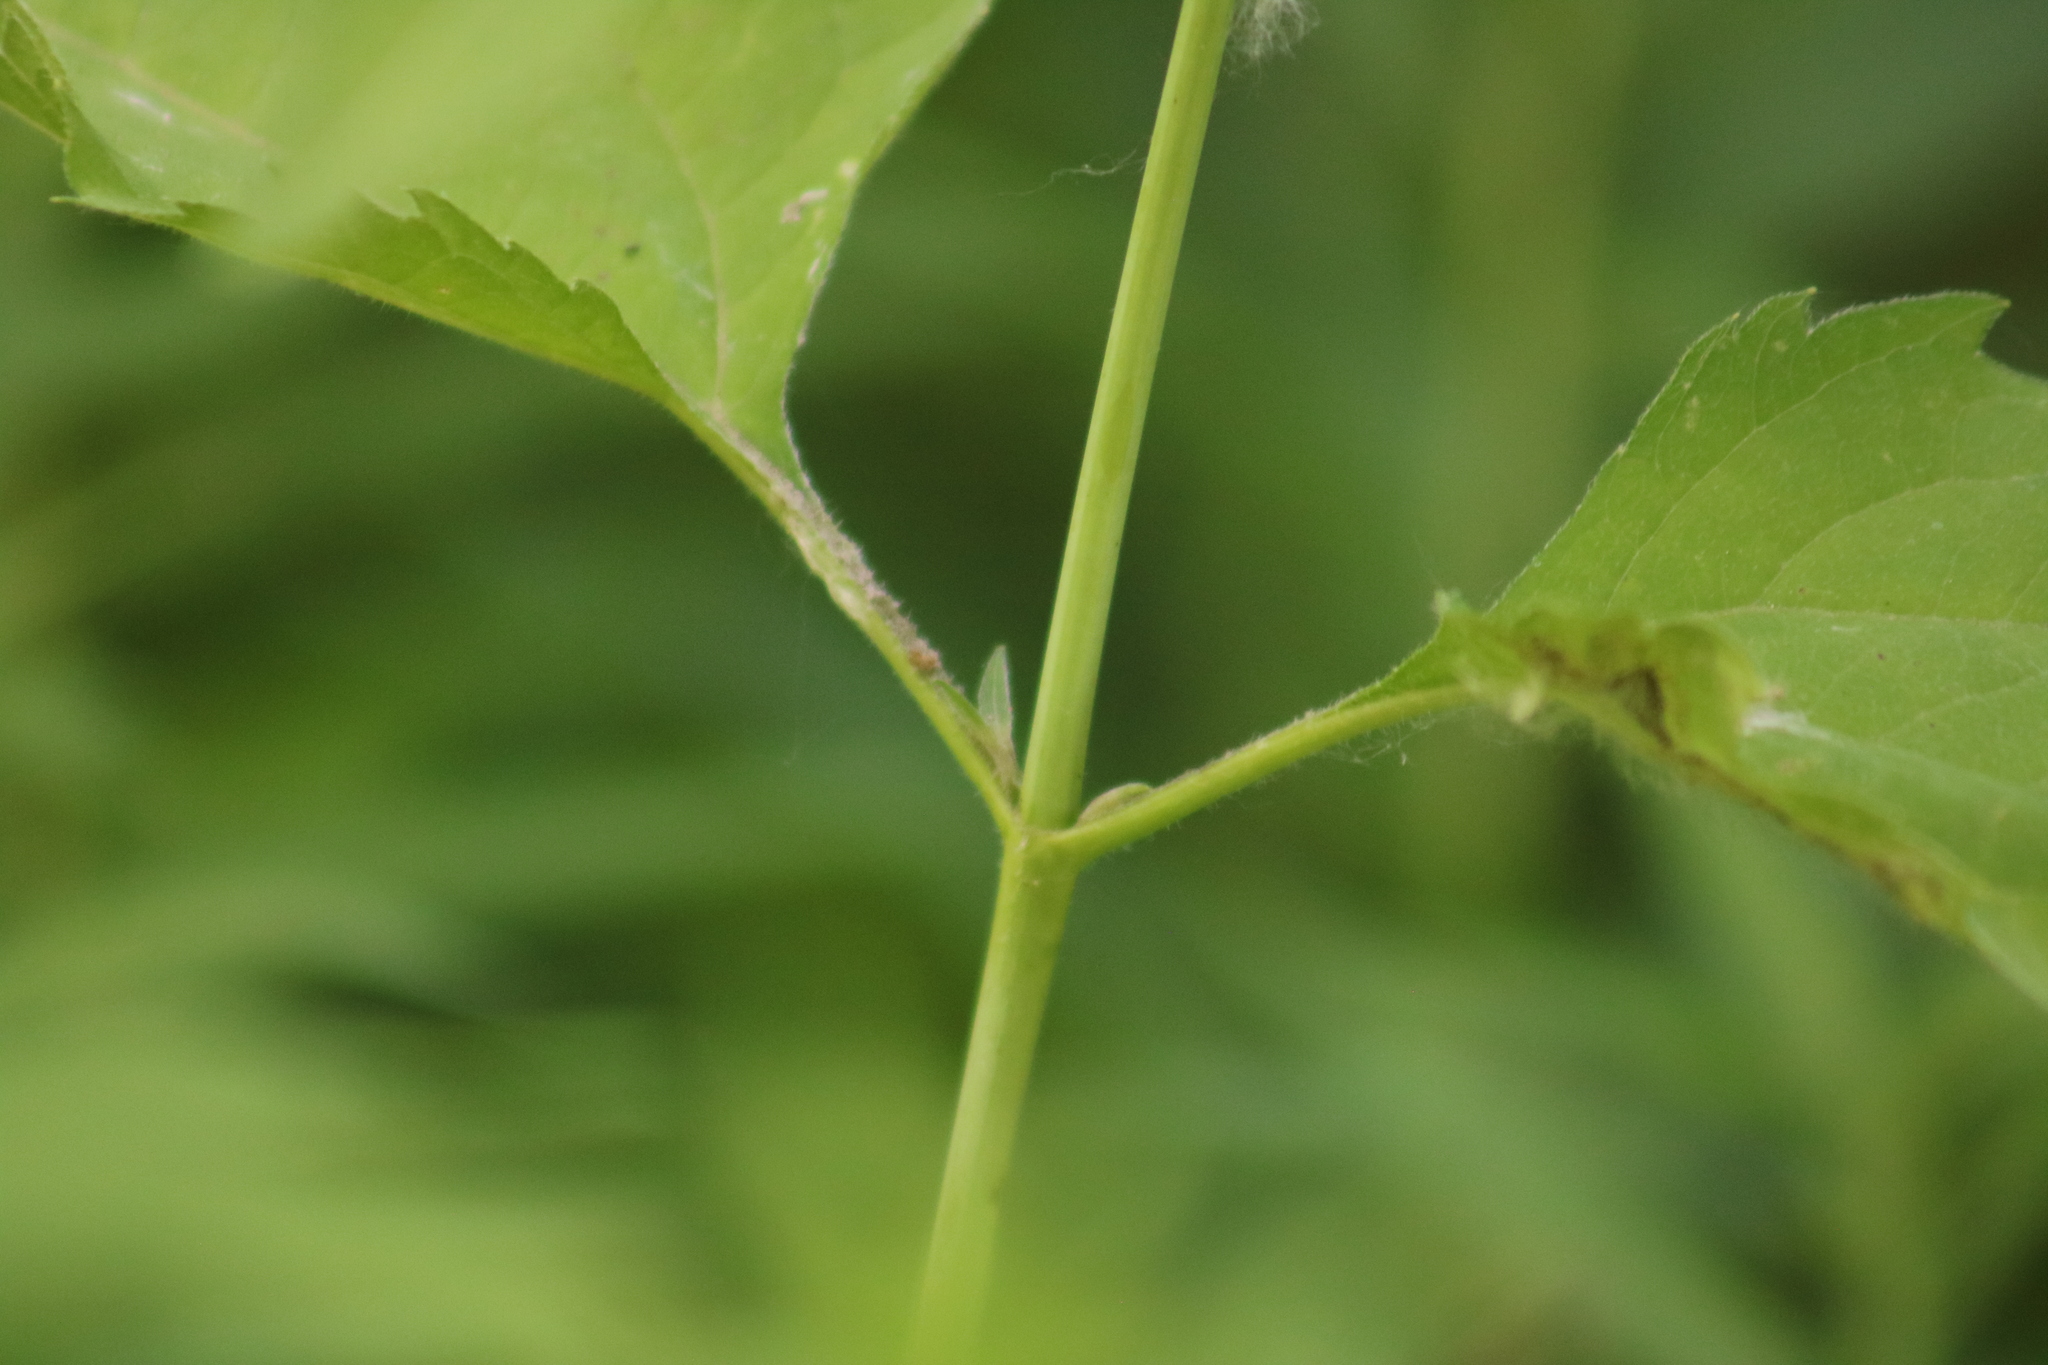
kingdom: Plantae
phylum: Tracheophyta
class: Magnoliopsida
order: Asterales
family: Asteraceae
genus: Heliopsis
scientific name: Heliopsis helianthoides
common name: False sunflower
